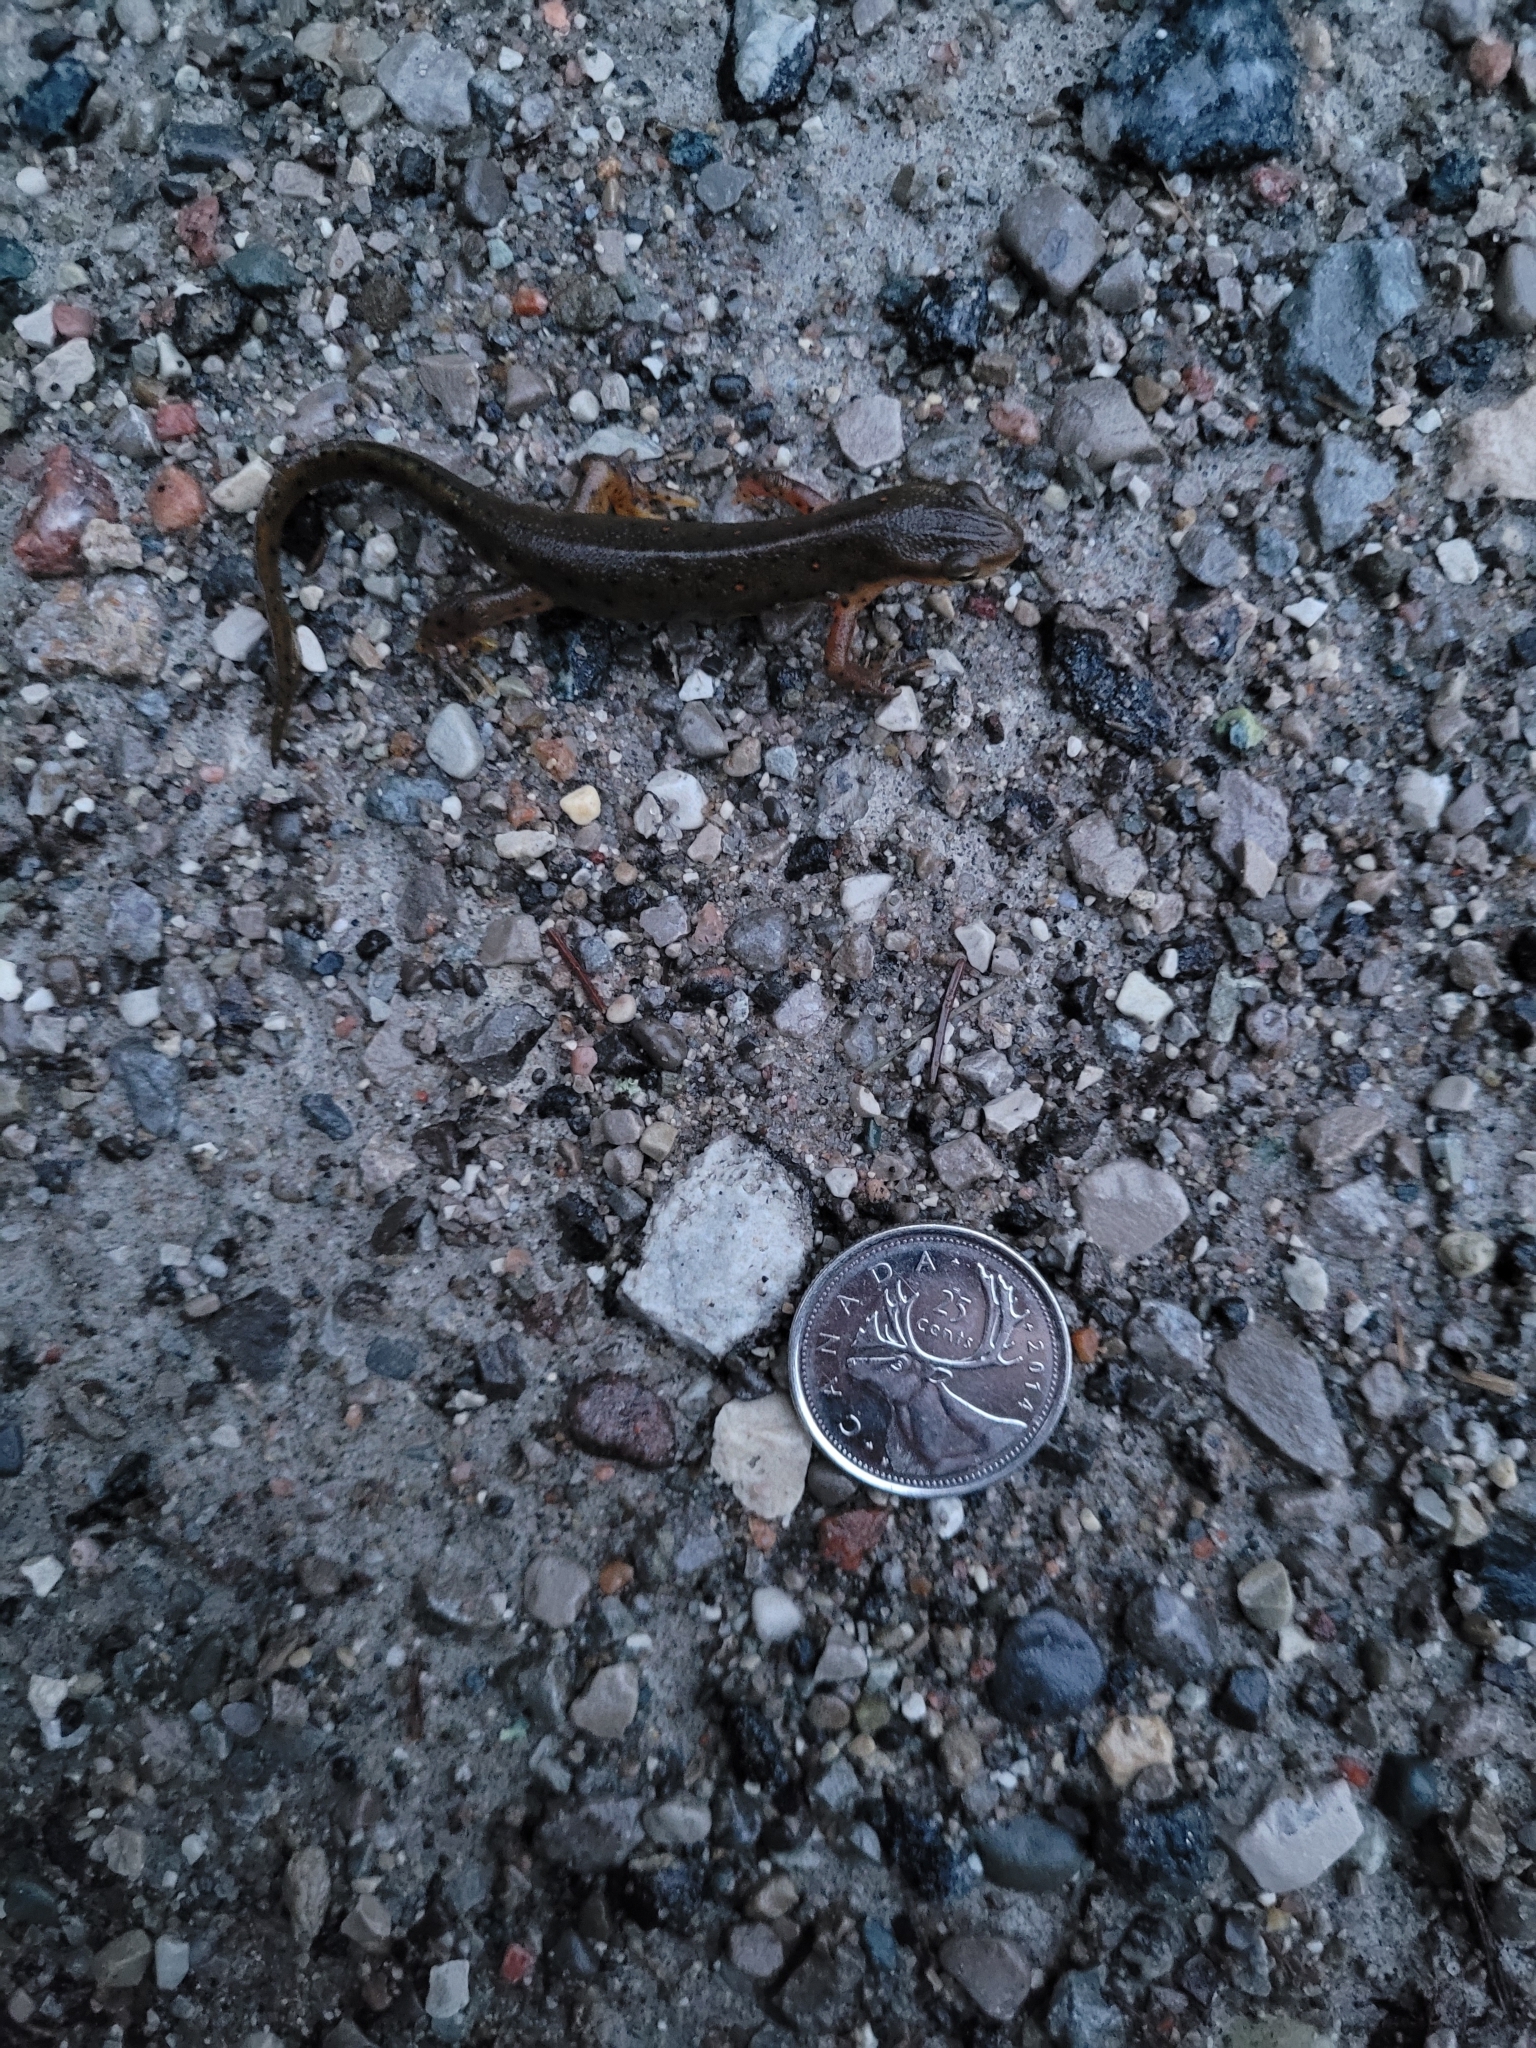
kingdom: Animalia
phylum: Chordata
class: Amphibia
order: Caudata
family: Salamandridae
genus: Notophthalmus
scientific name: Notophthalmus viridescens
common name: Eastern newt
